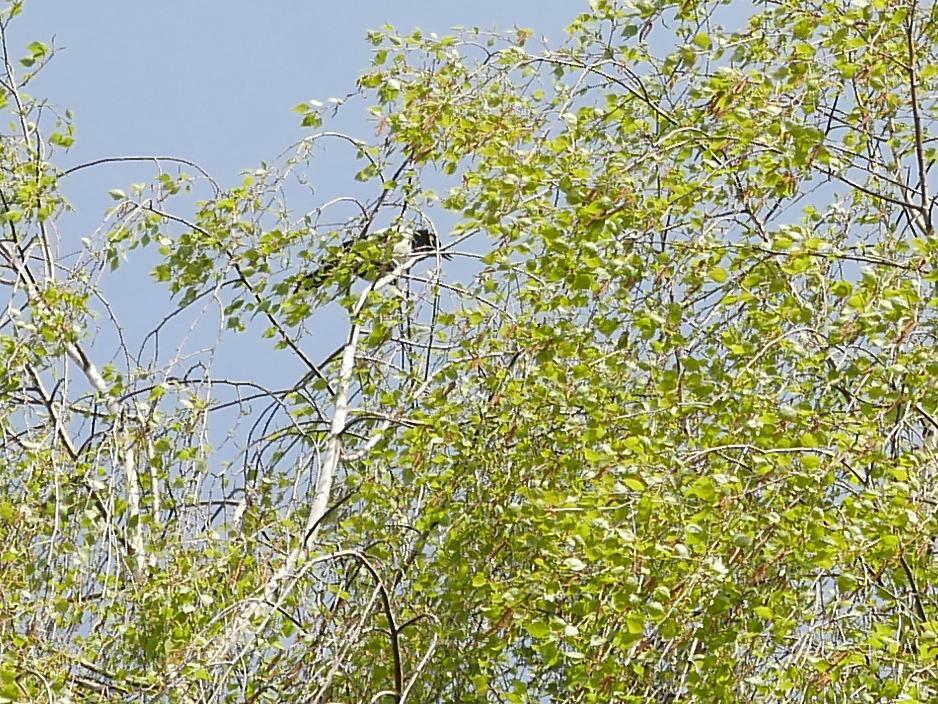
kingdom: Animalia
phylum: Chordata
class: Aves
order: Passeriformes
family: Corvidae
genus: Pica
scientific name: Pica pica
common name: Eurasian magpie
